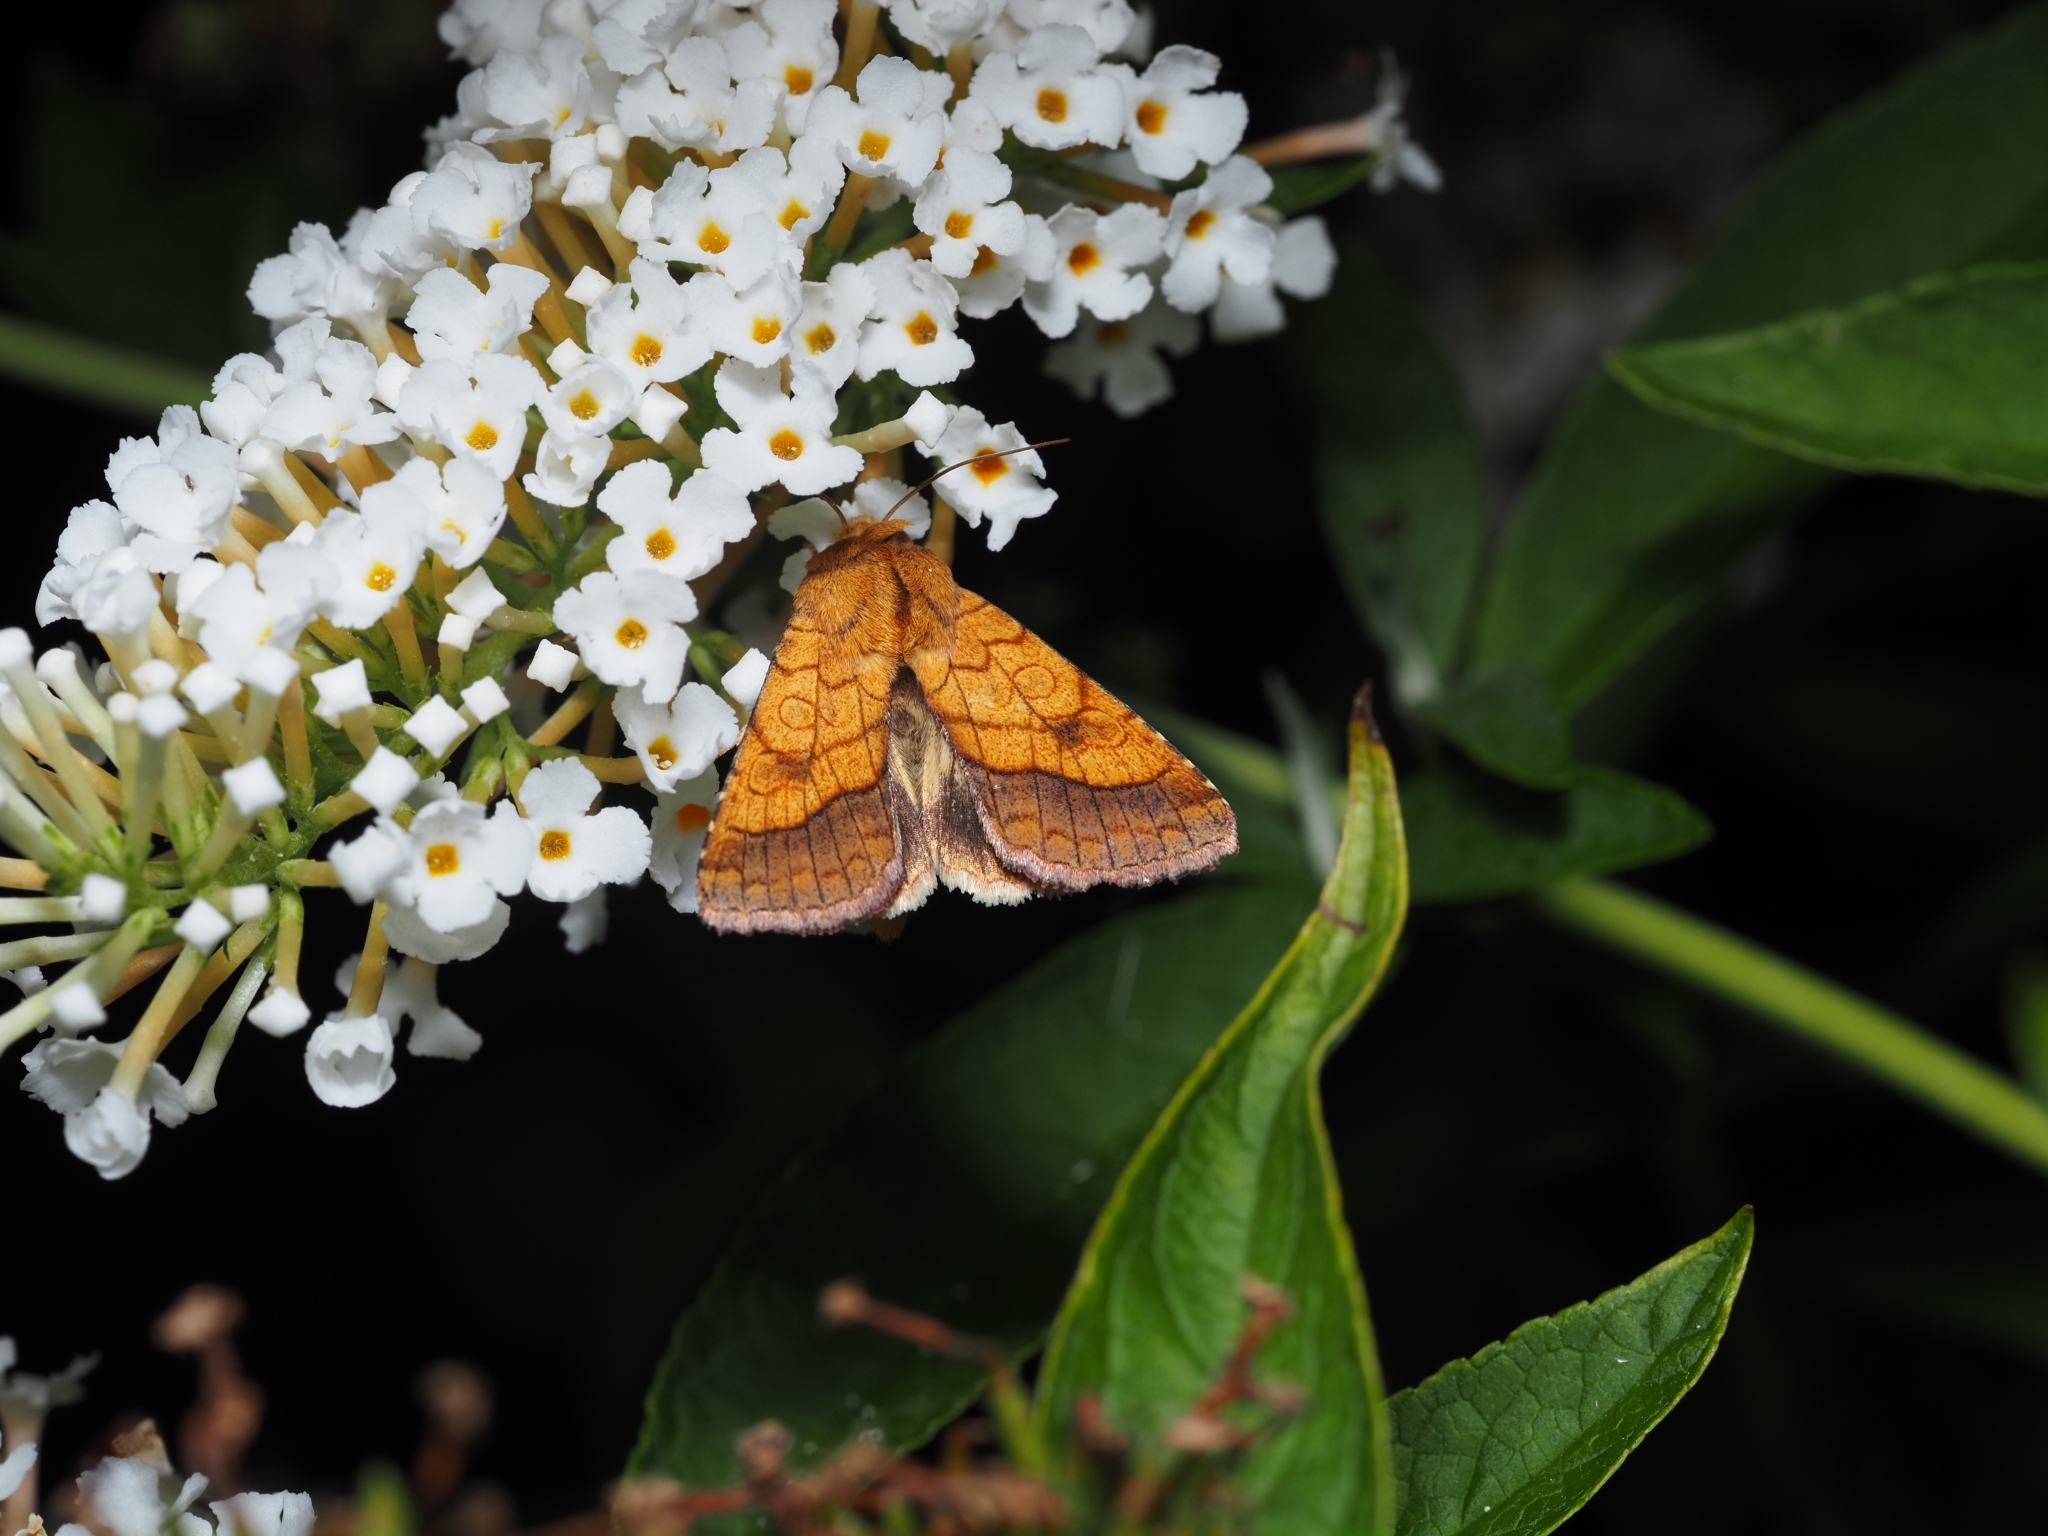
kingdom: Animalia
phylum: Arthropoda
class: Insecta
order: Lepidoptera
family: Noctuidae
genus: Pyrrhia
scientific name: Pyrrhia umbra
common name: Bordered sallow
